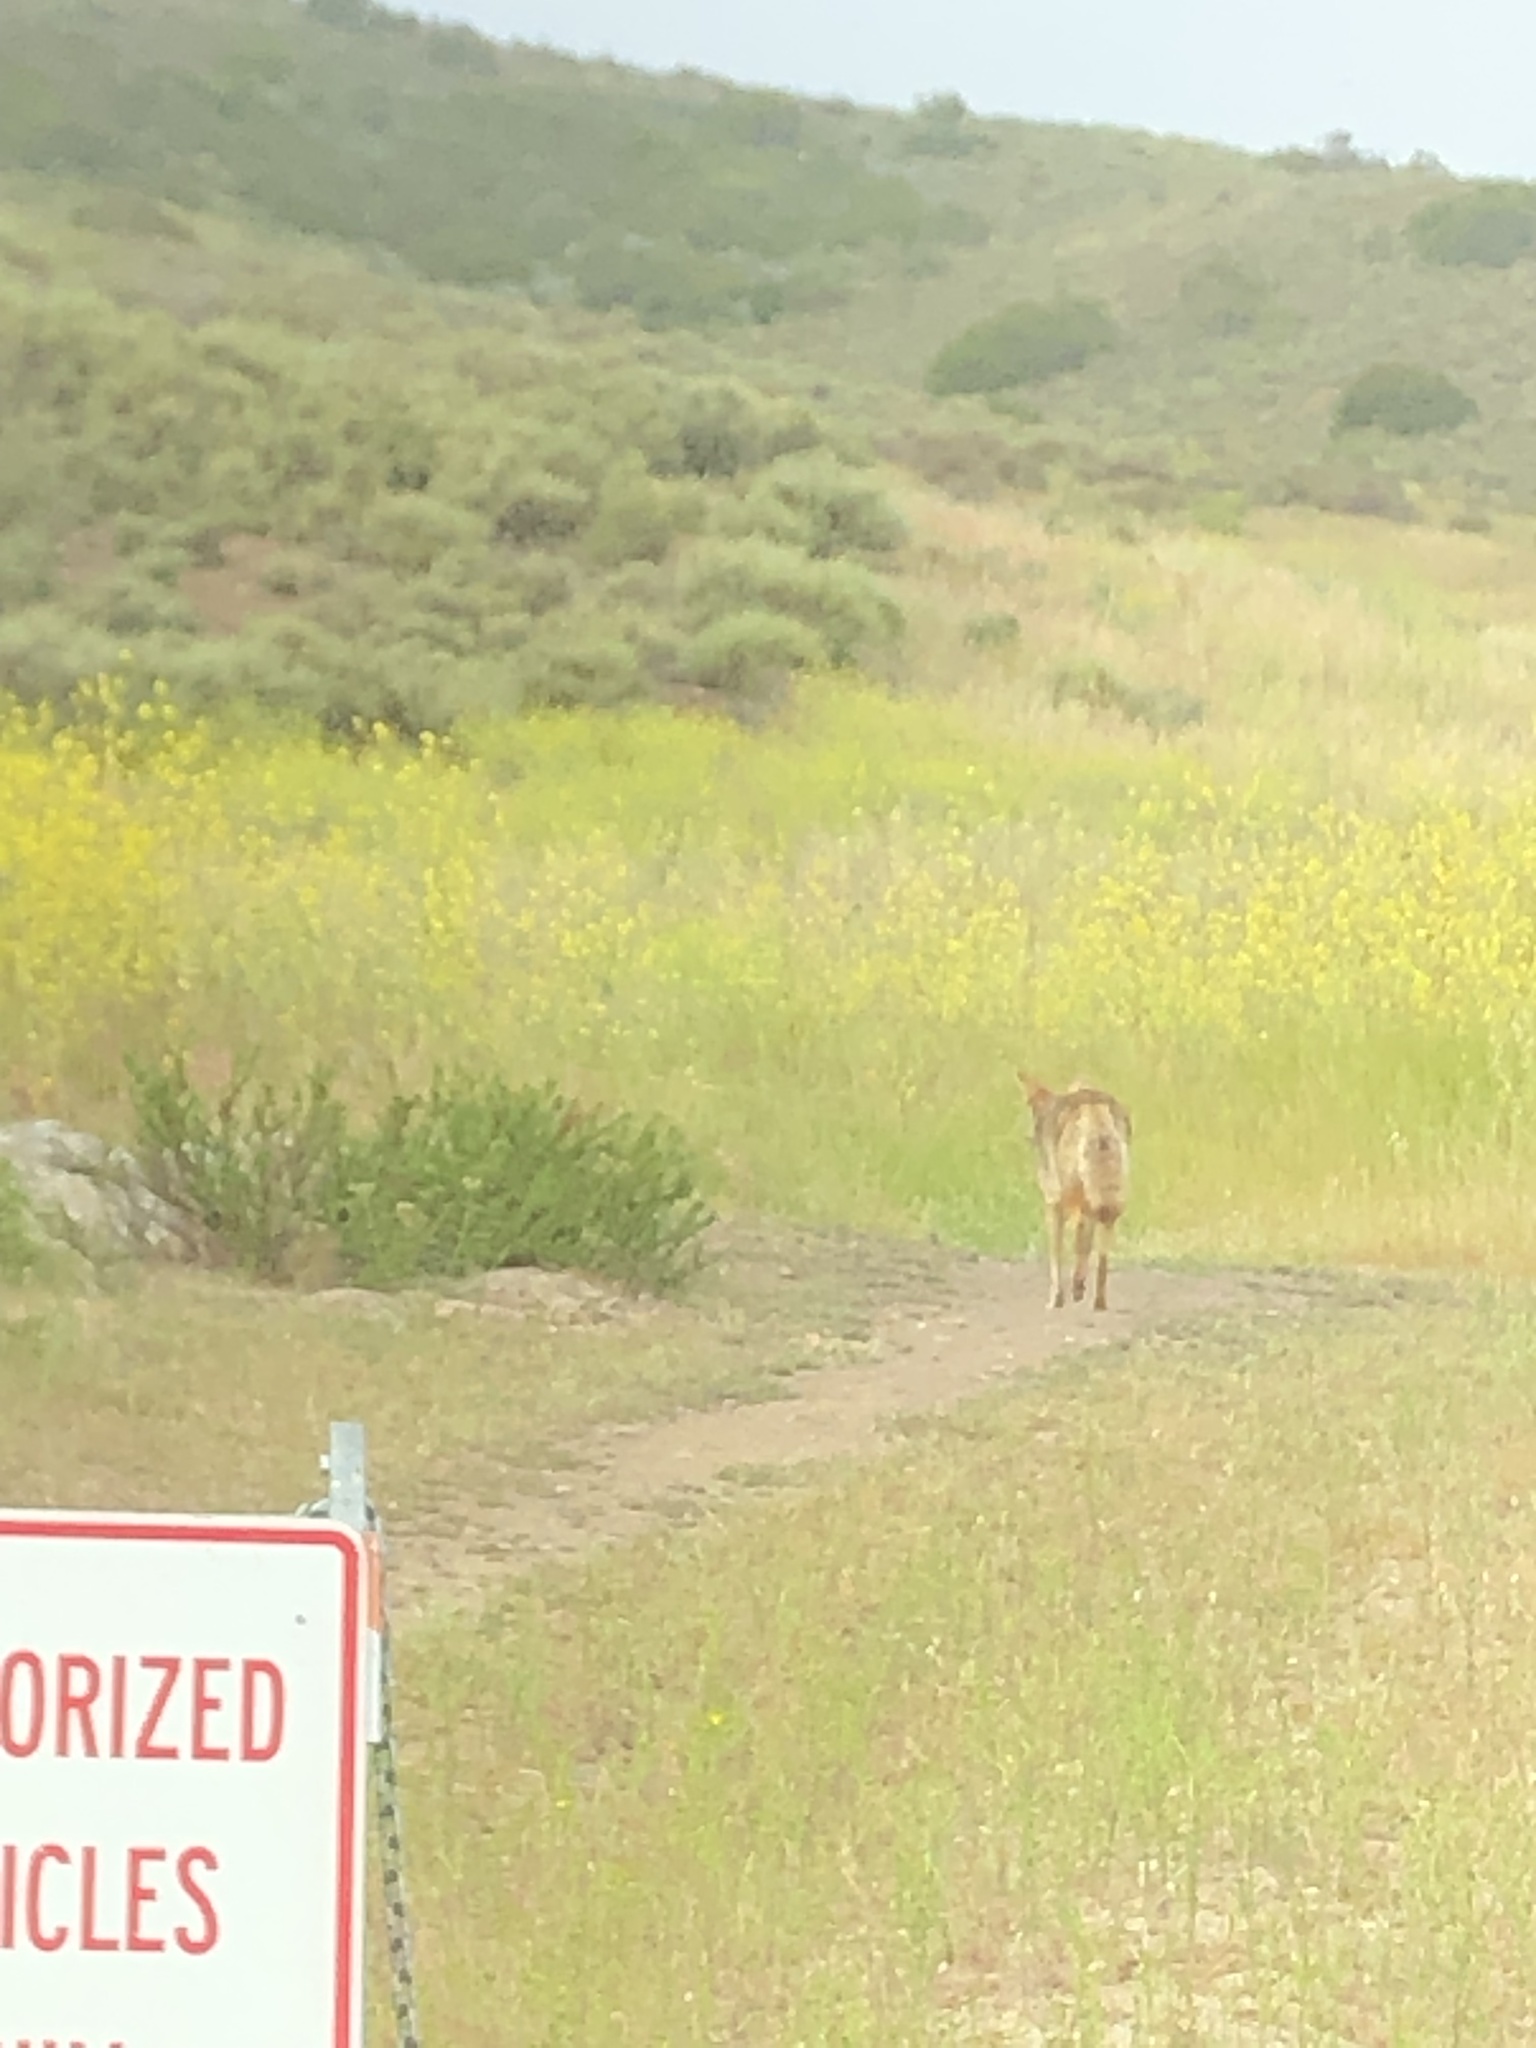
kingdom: Animalia
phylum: Chordata
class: Mammalia
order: Carnivora
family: Canidae
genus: Canis
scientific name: Canis latrans
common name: Coyote
